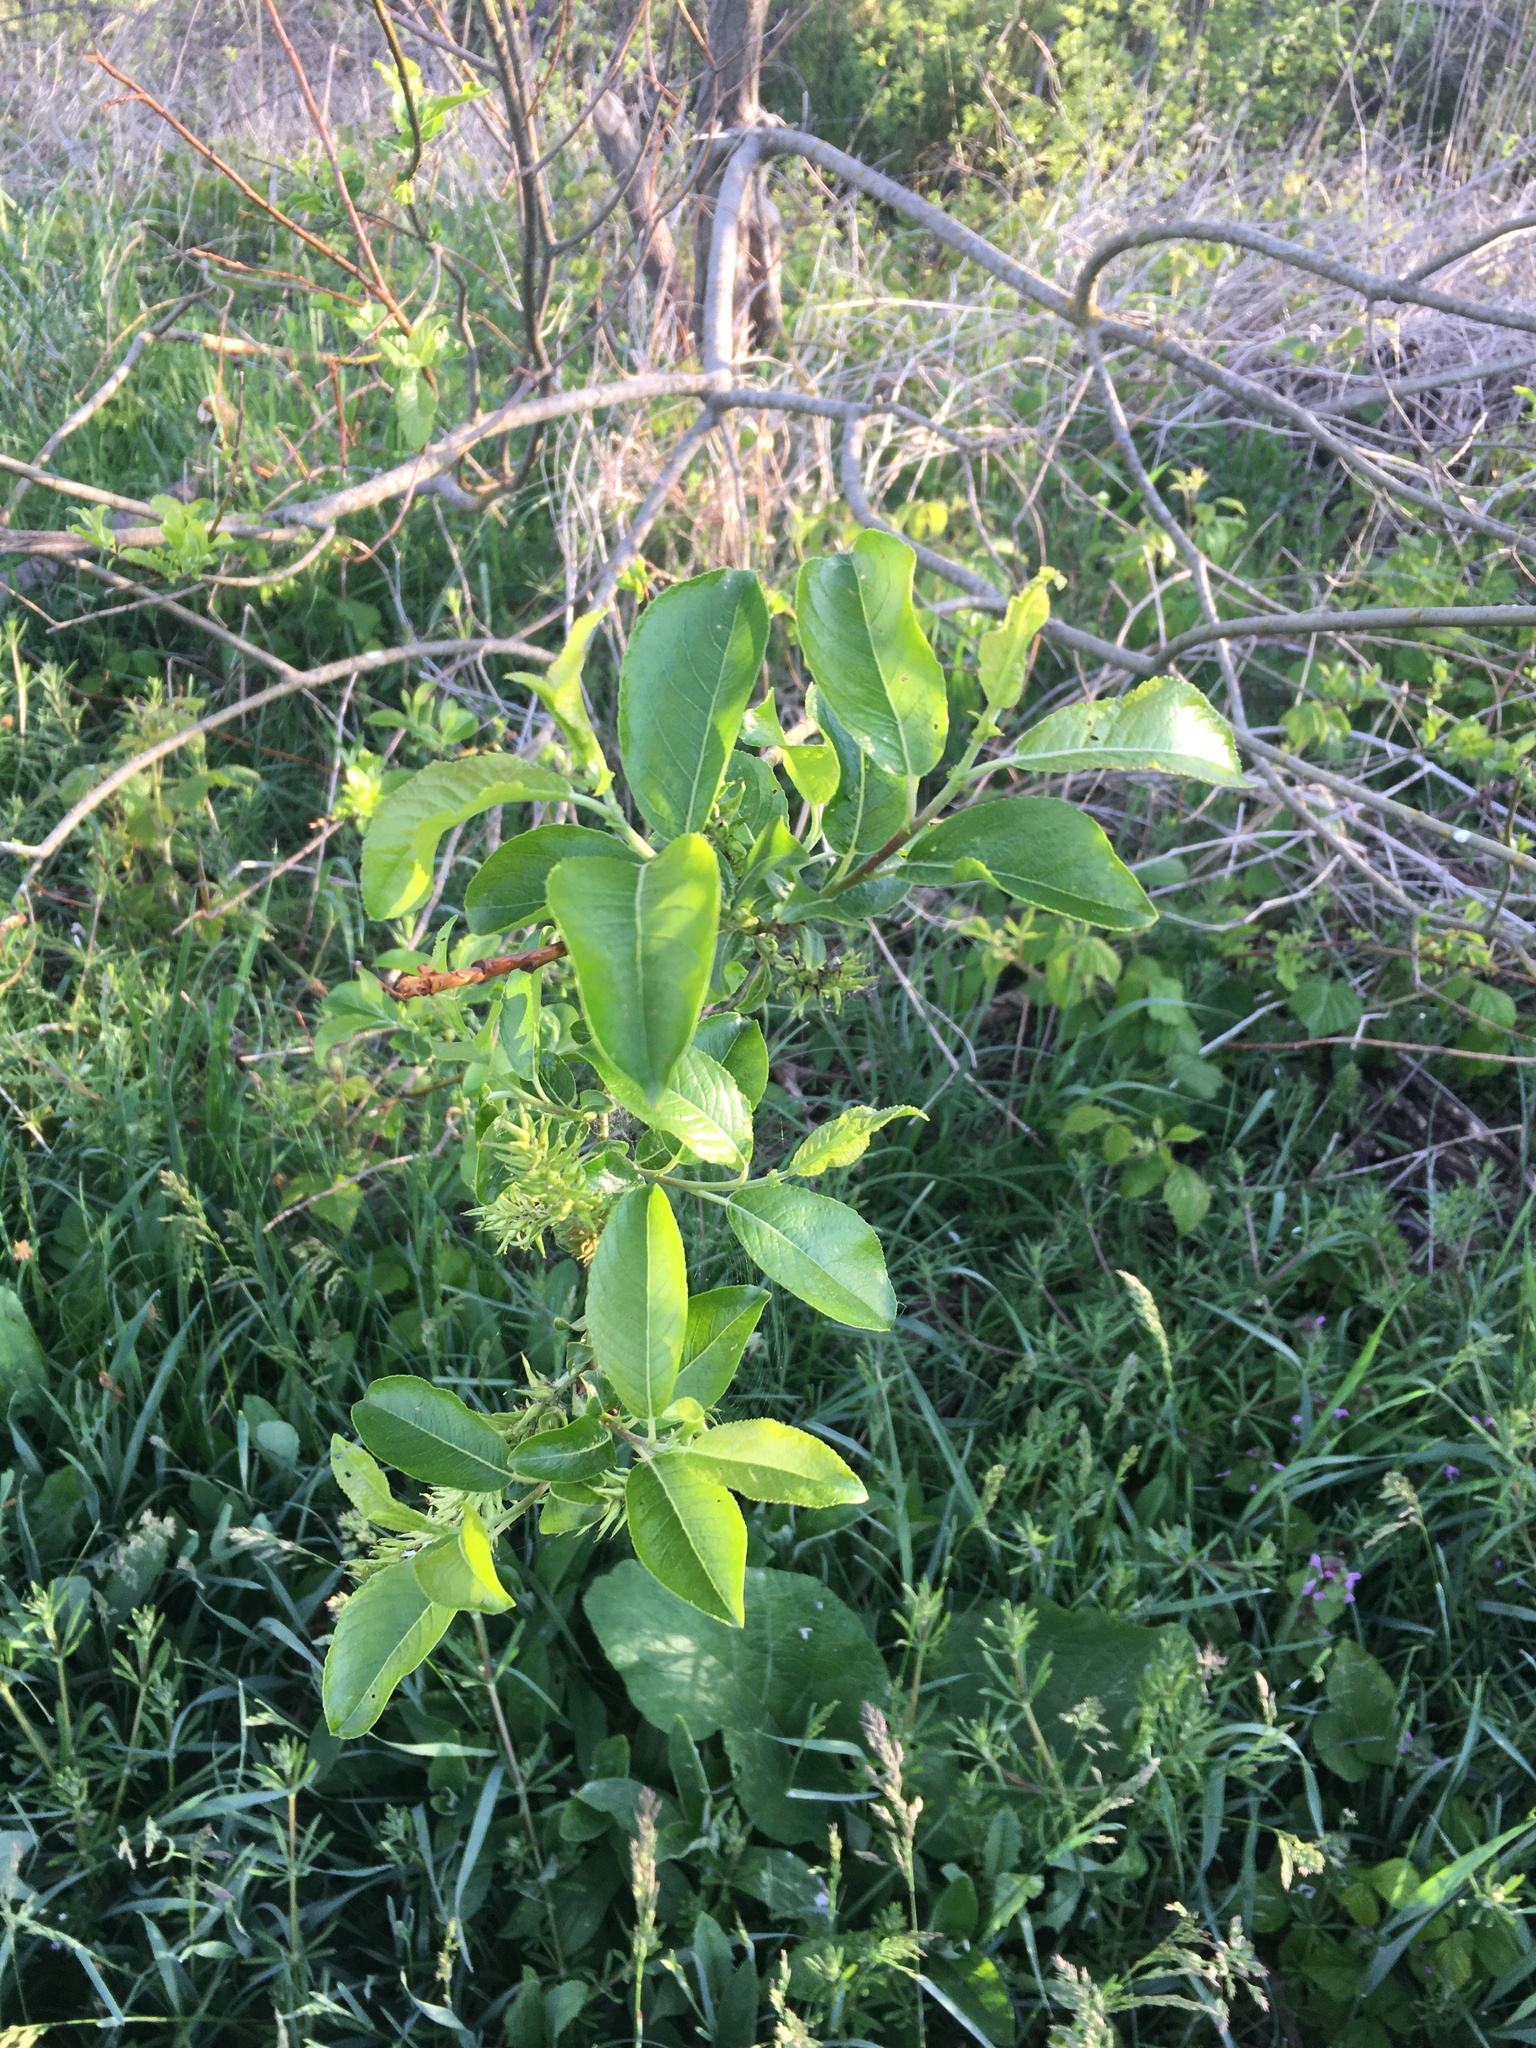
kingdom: Plantae
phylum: Tracheophyta
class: Magnoliopsida
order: Malpighiales
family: Salicaceae
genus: Salix
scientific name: Salix caprea
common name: Goat willow
